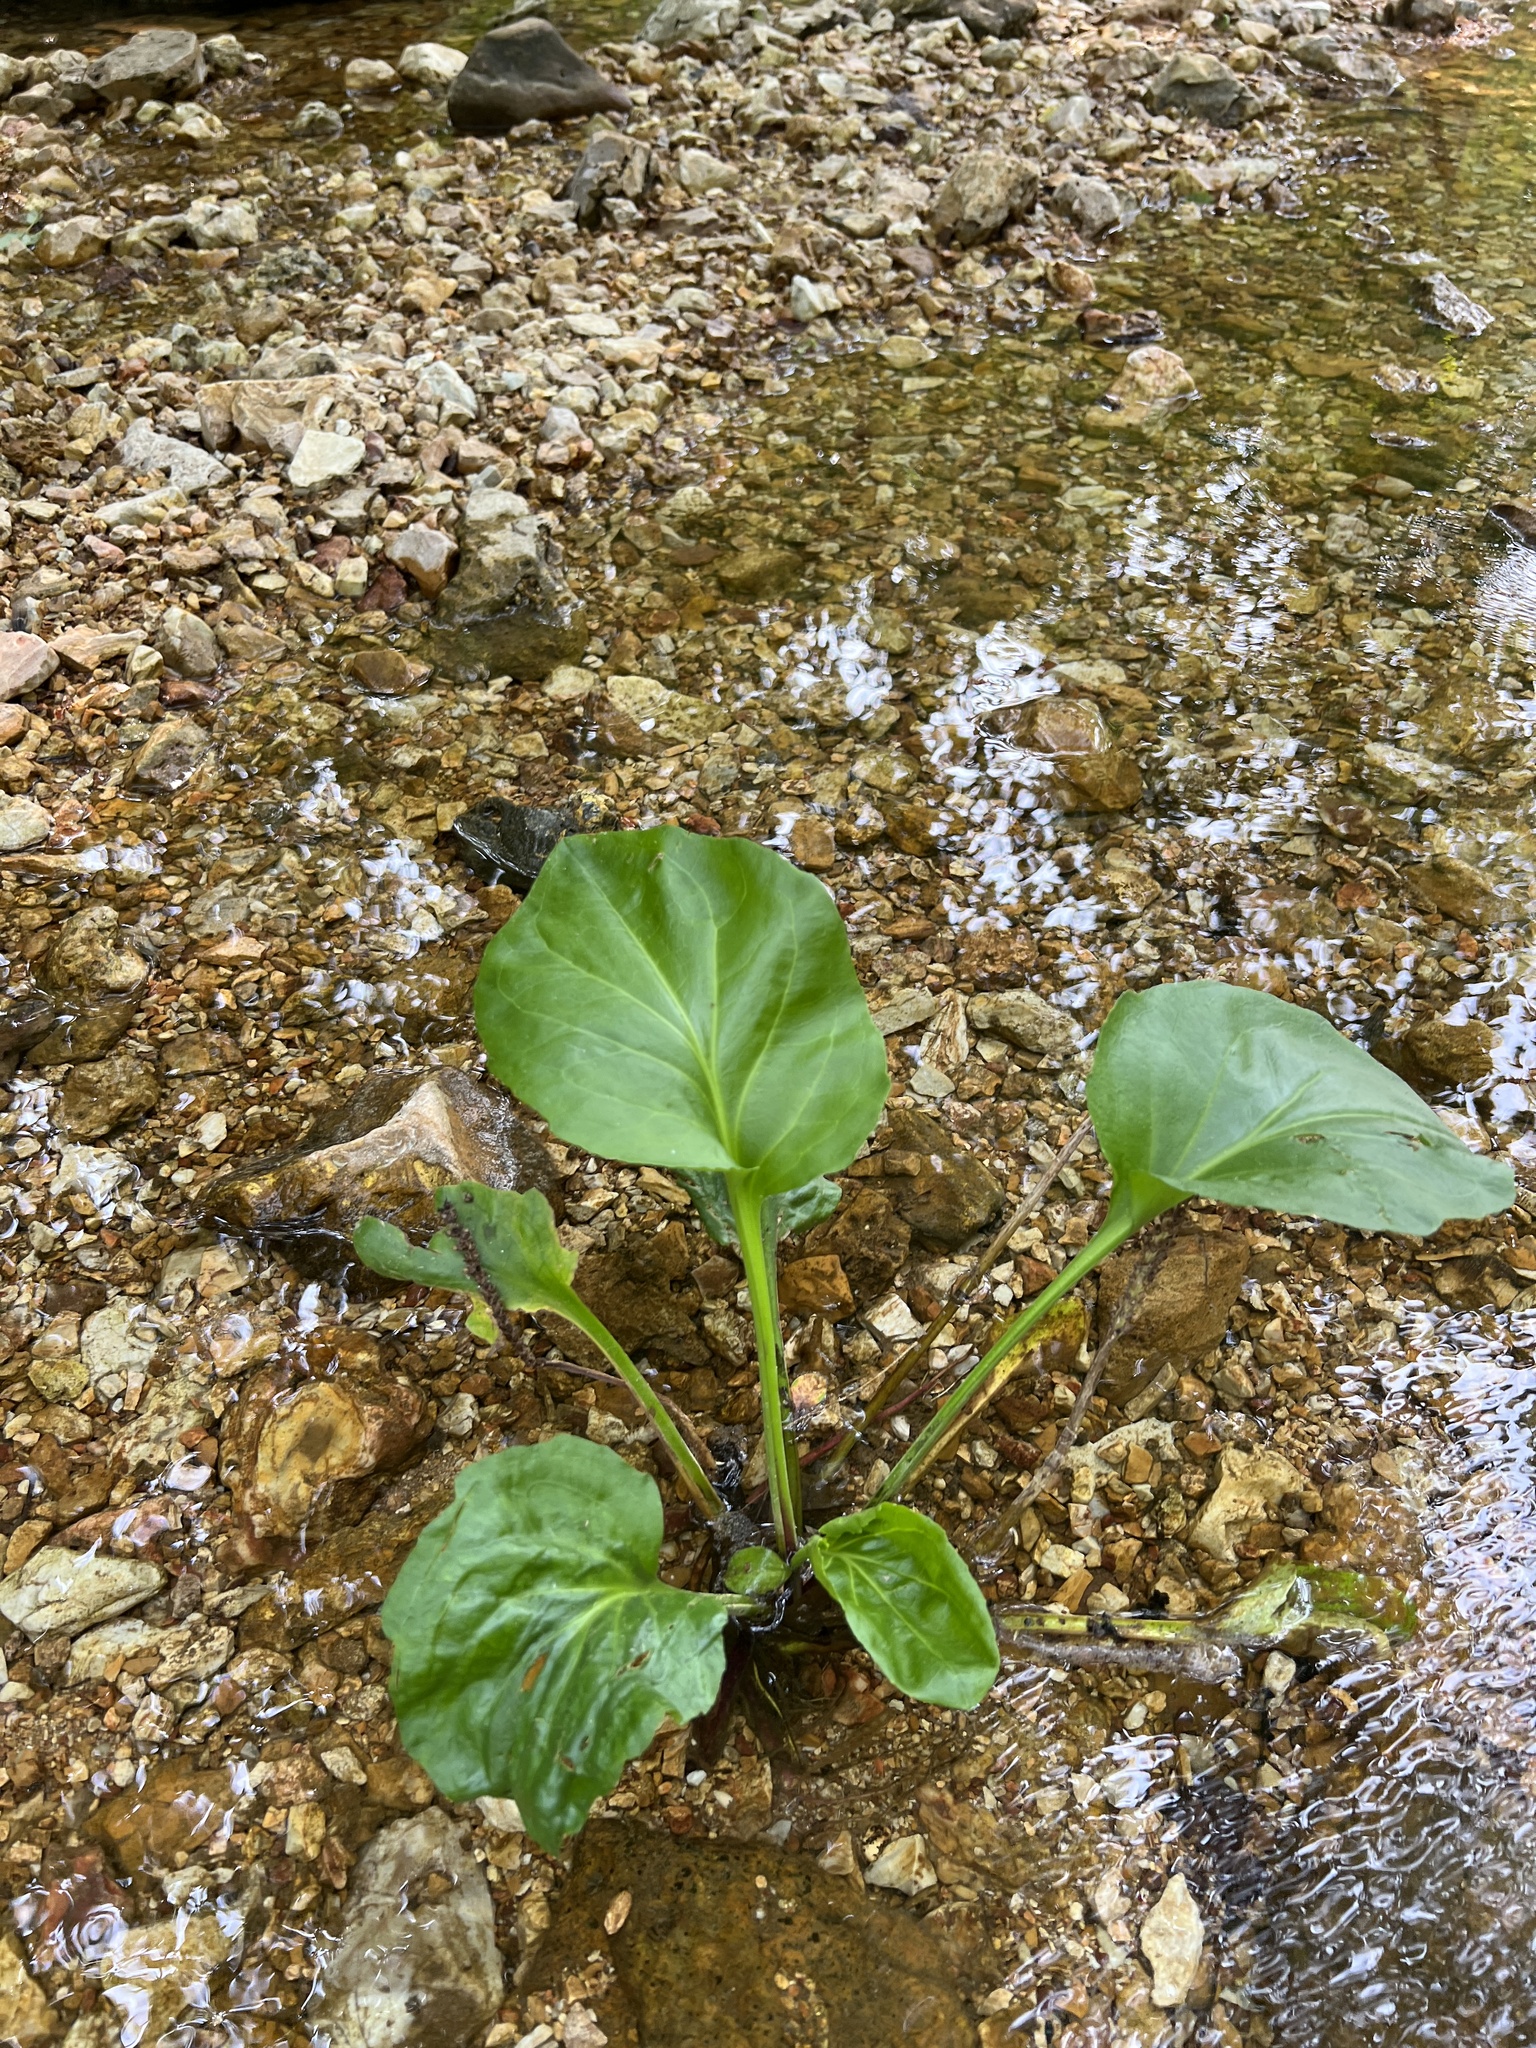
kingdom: Plantae
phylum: Tracheophyta
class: Magnoliopsida
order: Lamiales
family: Plantaginaceae
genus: Plantago
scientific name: Plantago cordata
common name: Kingroot
